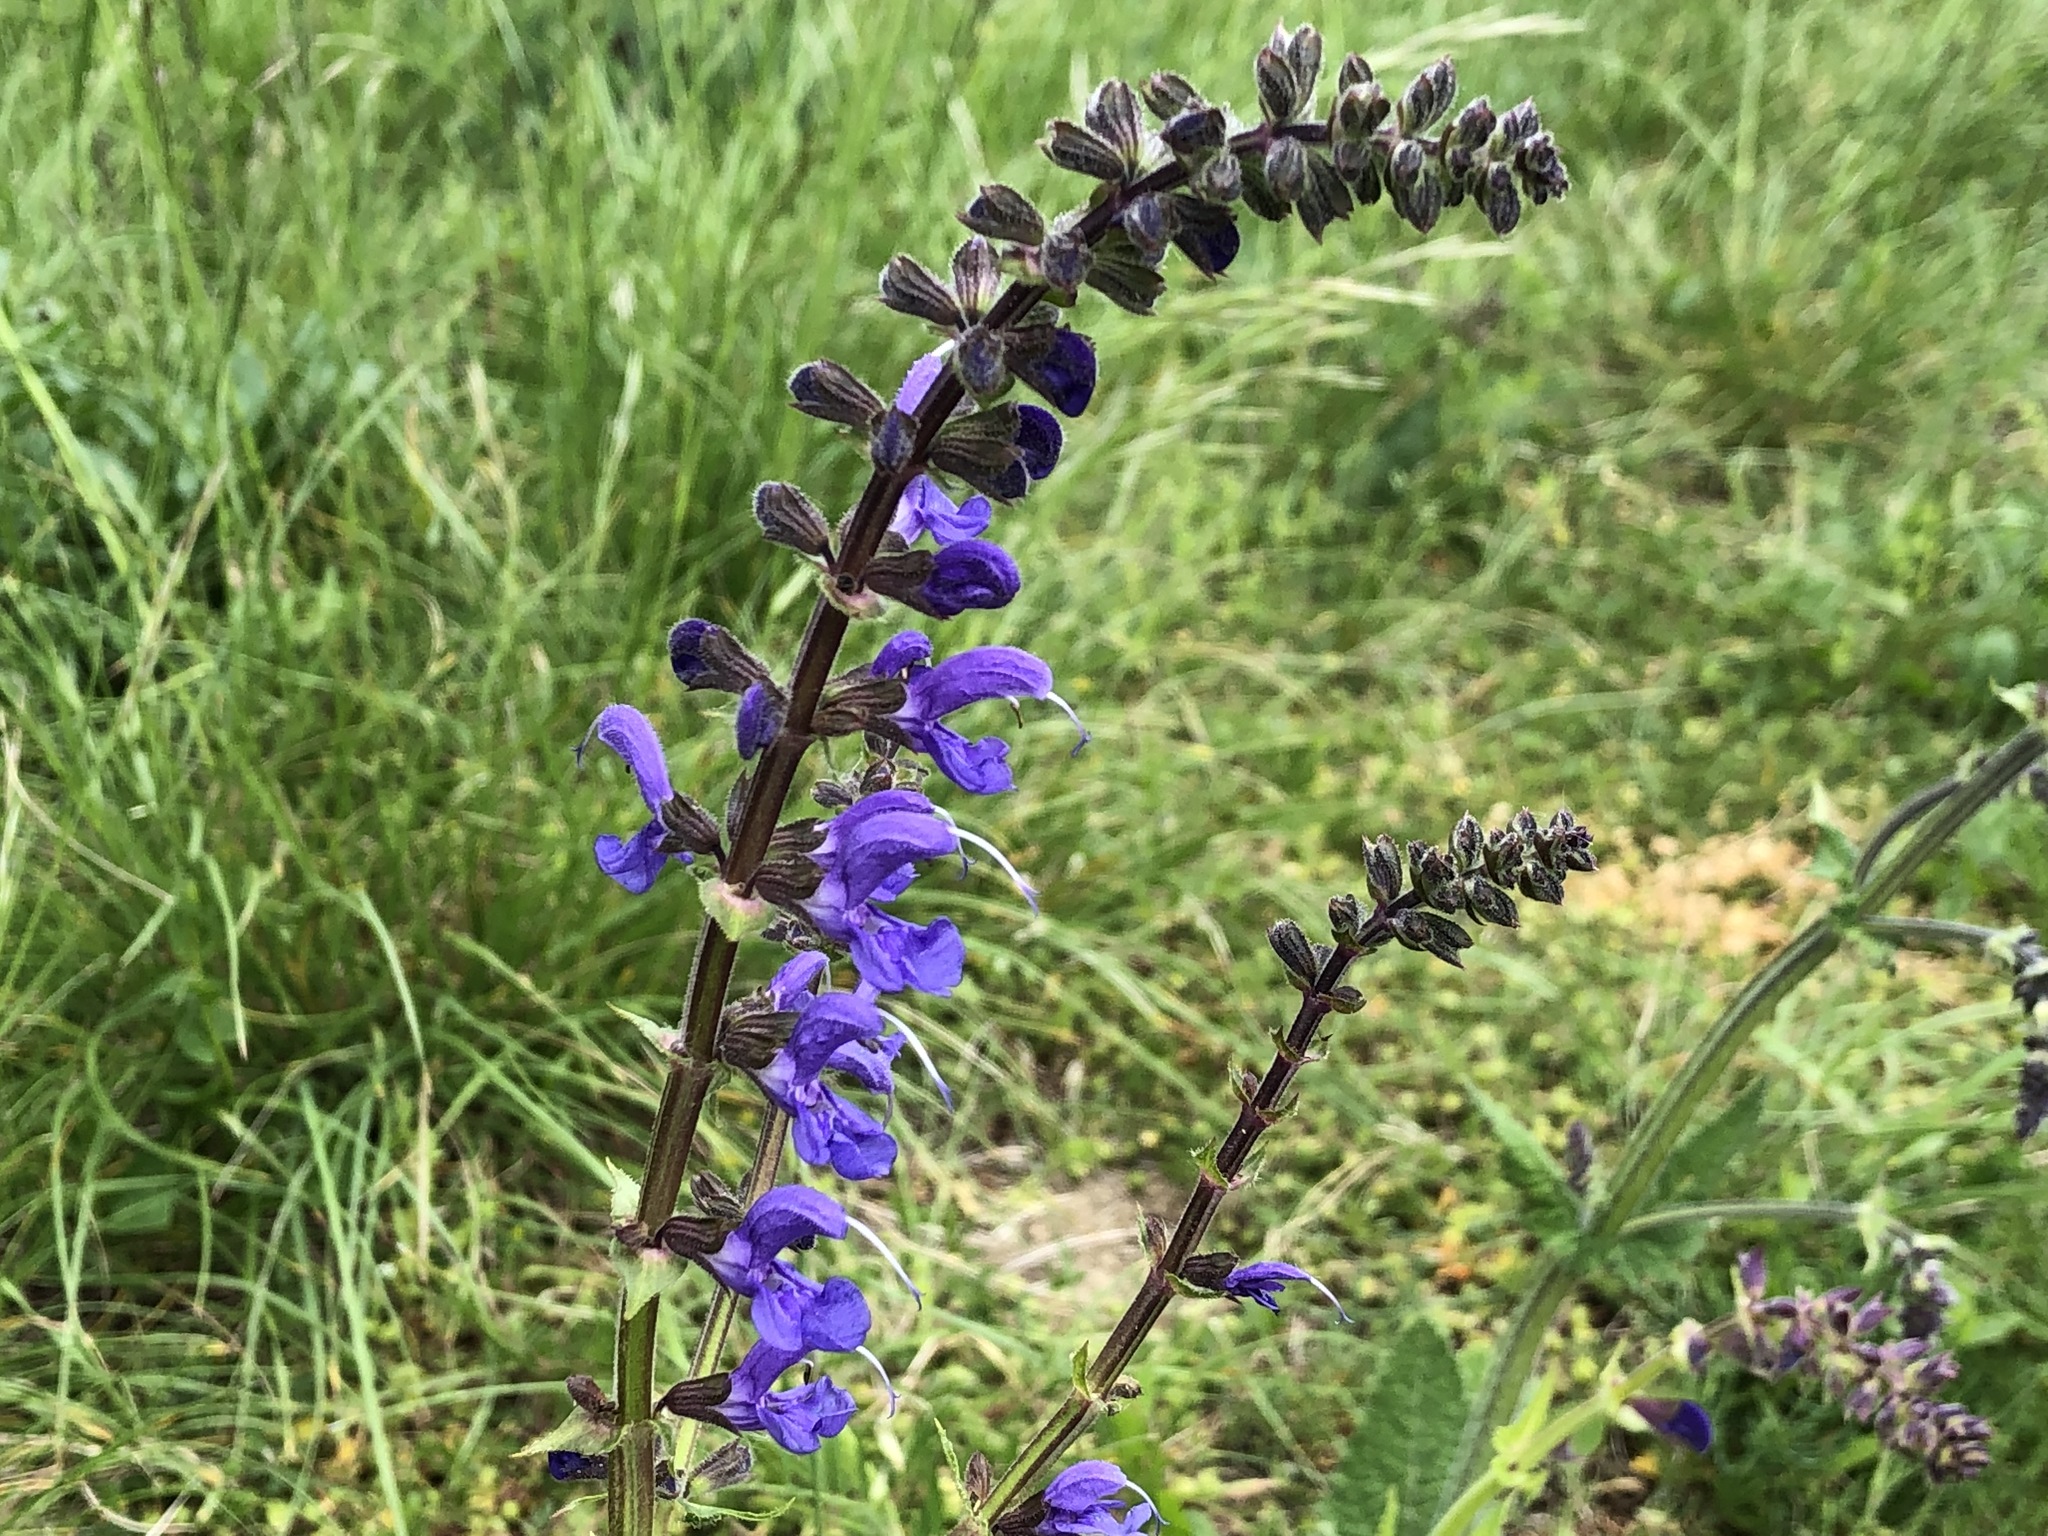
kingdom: Plantae
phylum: Tracheophyta
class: Magnoliopsida
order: Lamiales
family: Lamiaceae
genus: Salvia
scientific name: Salvia pratensis
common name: Meadow sage
